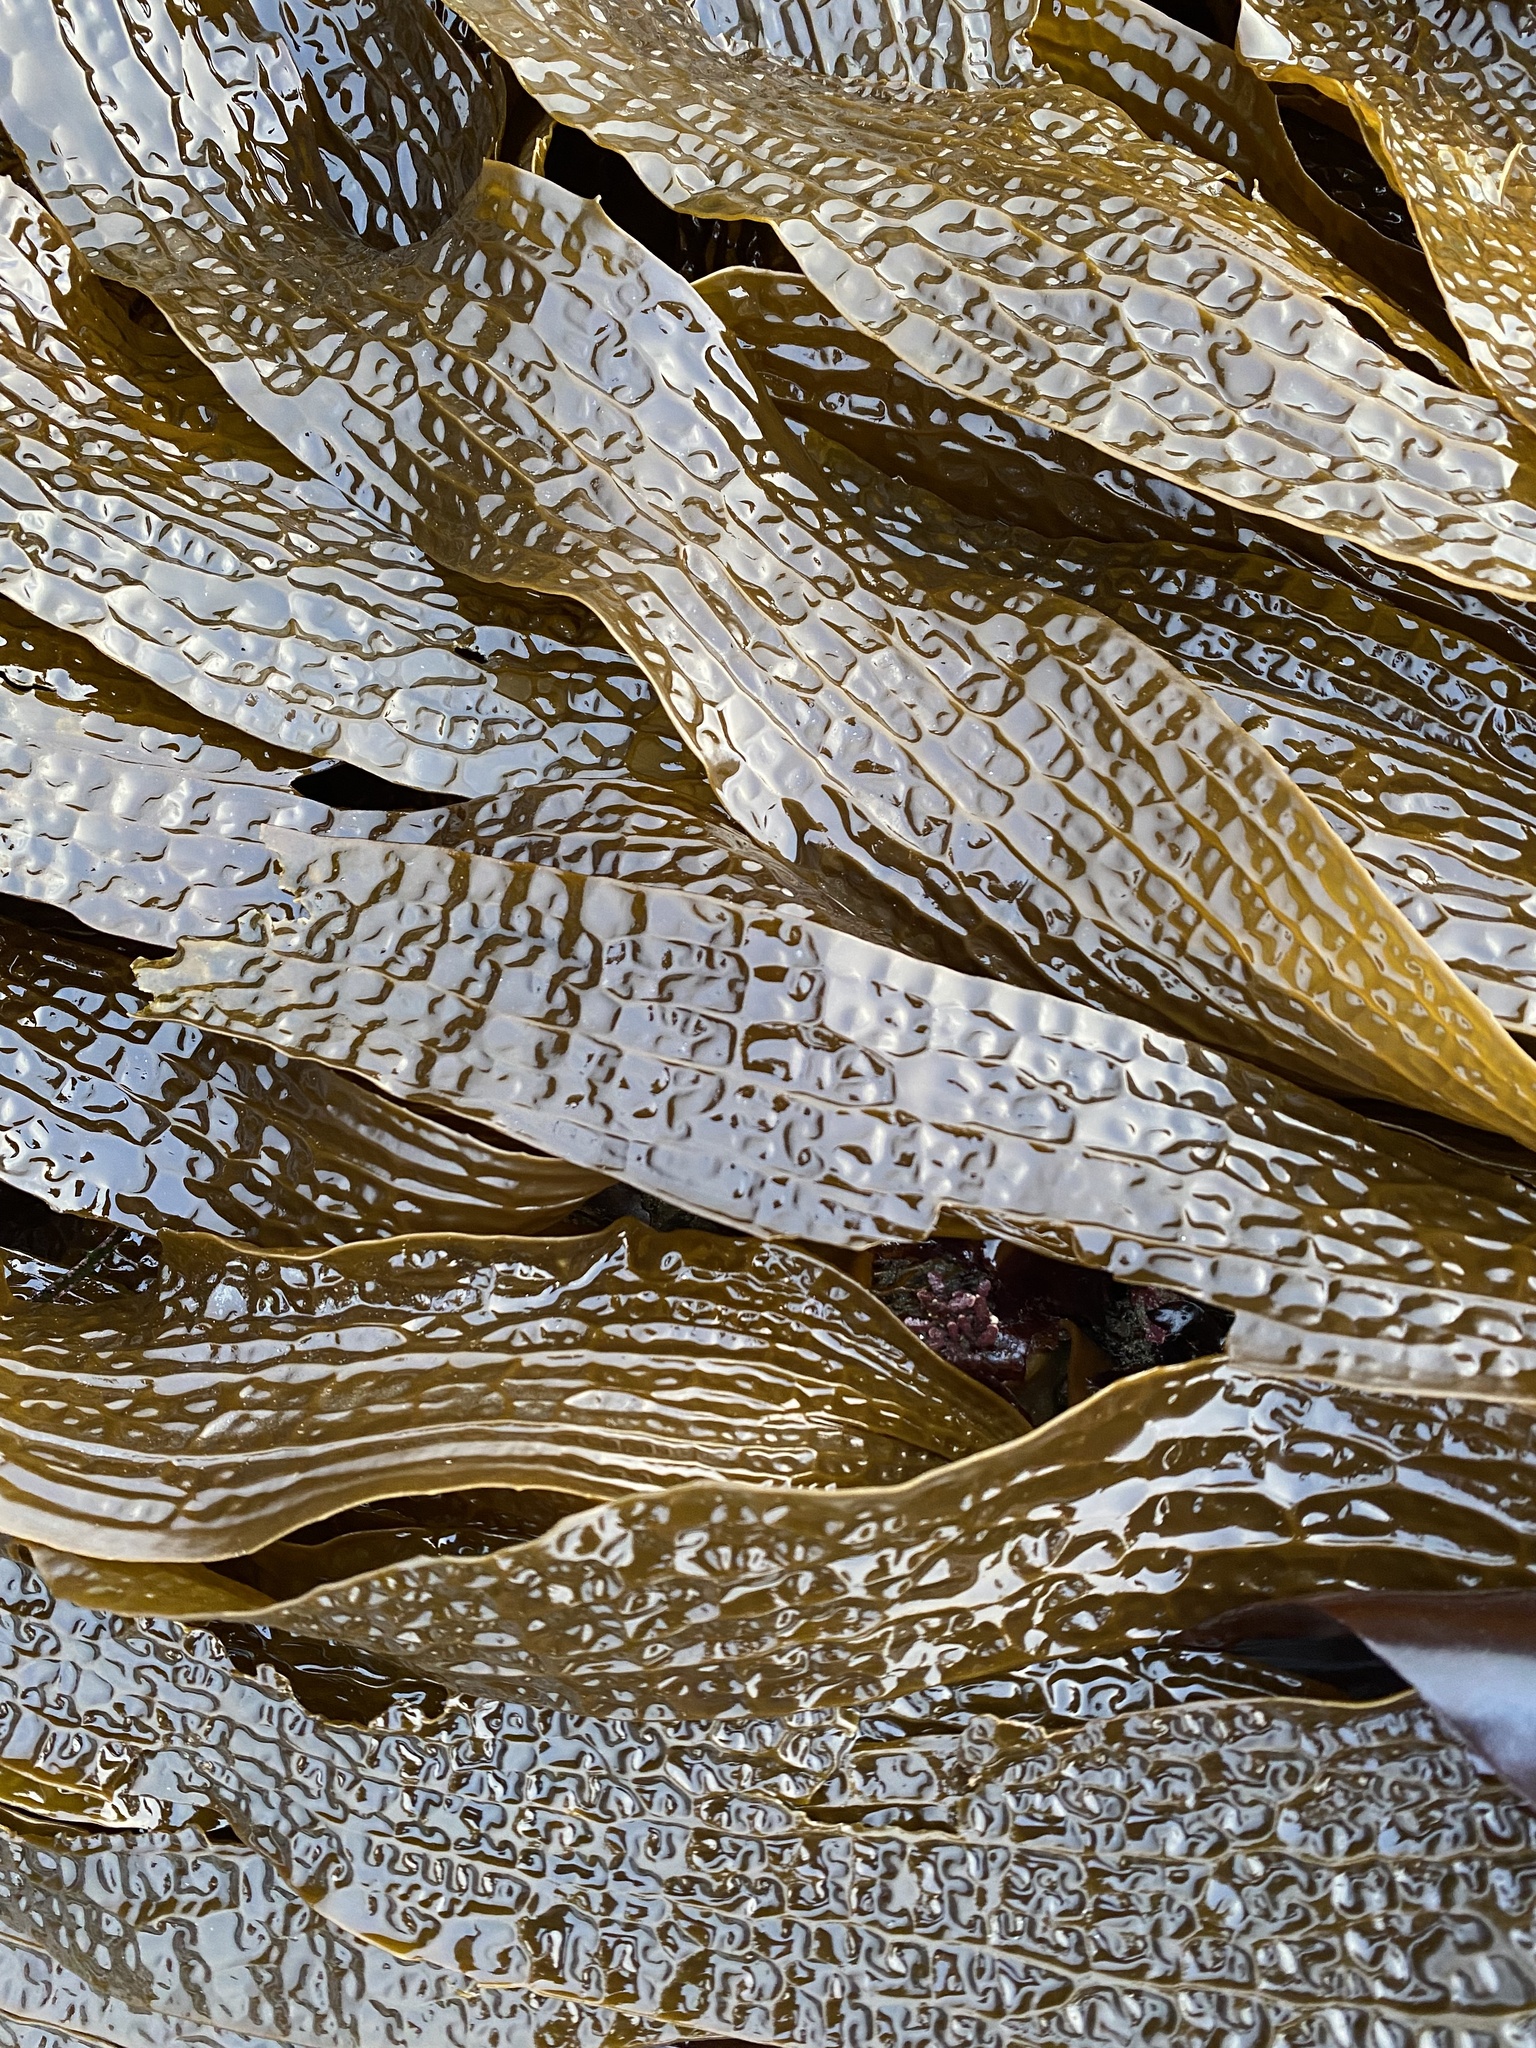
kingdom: Chromista
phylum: Ochrophyta
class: Phaeophyceae
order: Laminariales
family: Costariaceae
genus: Dictyoneurum
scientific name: Dictyoneurum californicum
